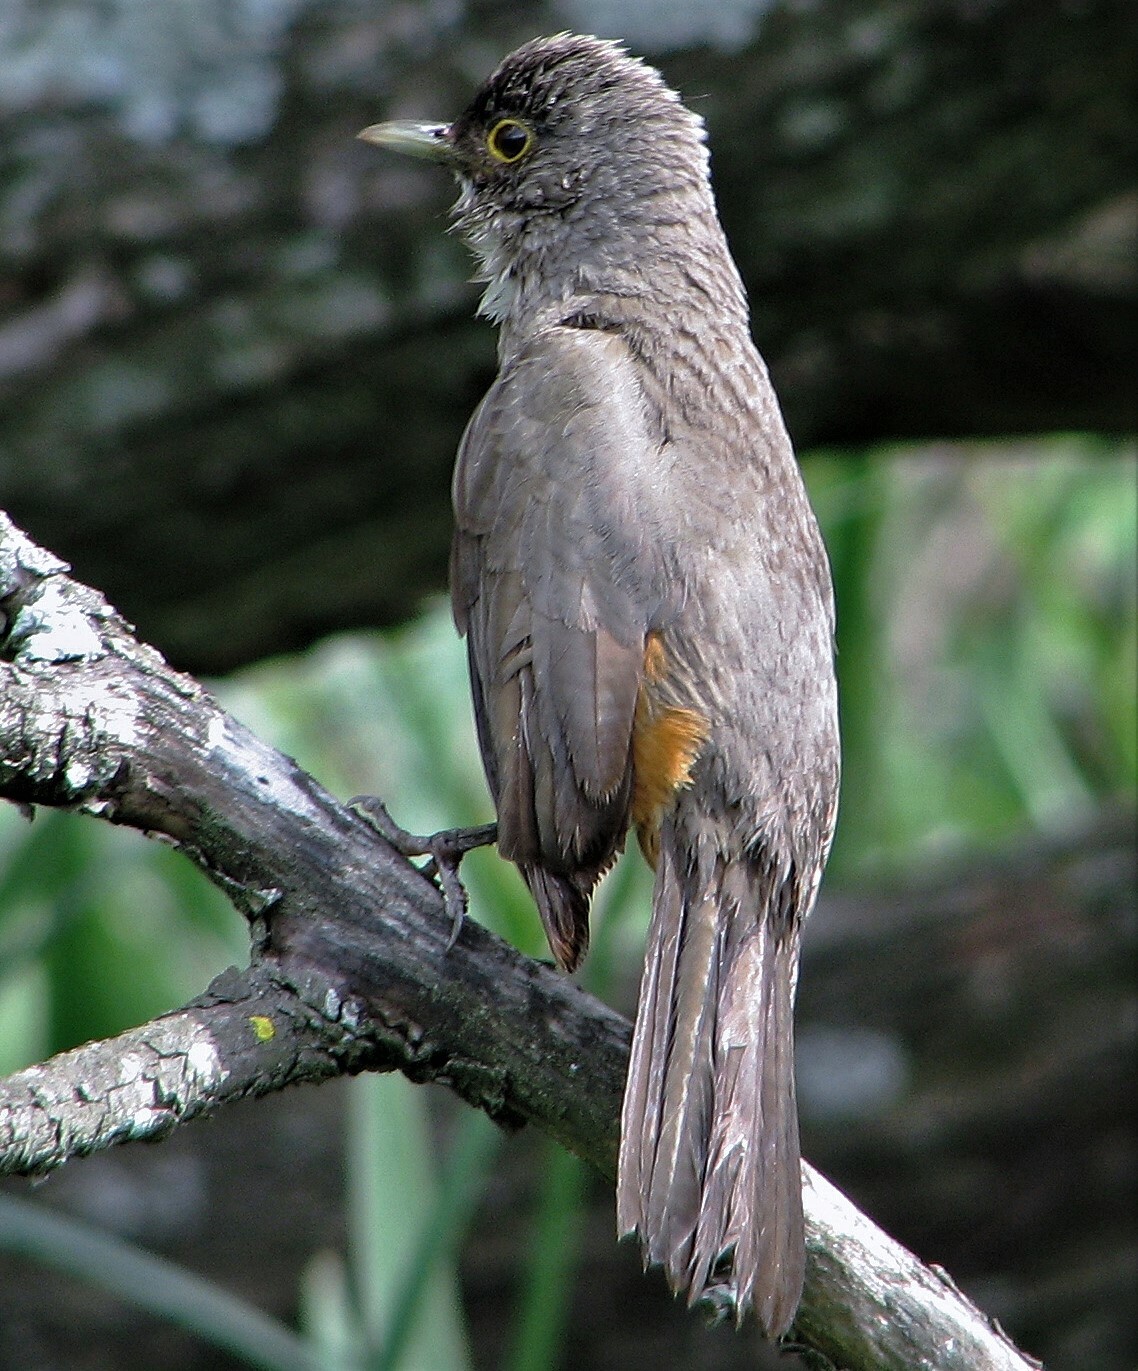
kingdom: Animalia
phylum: Chordata
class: Aves
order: Passeriformes
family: Turdidae
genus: Turdus
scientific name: Turdus rufiventris
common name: Rufous-bellied thrush
